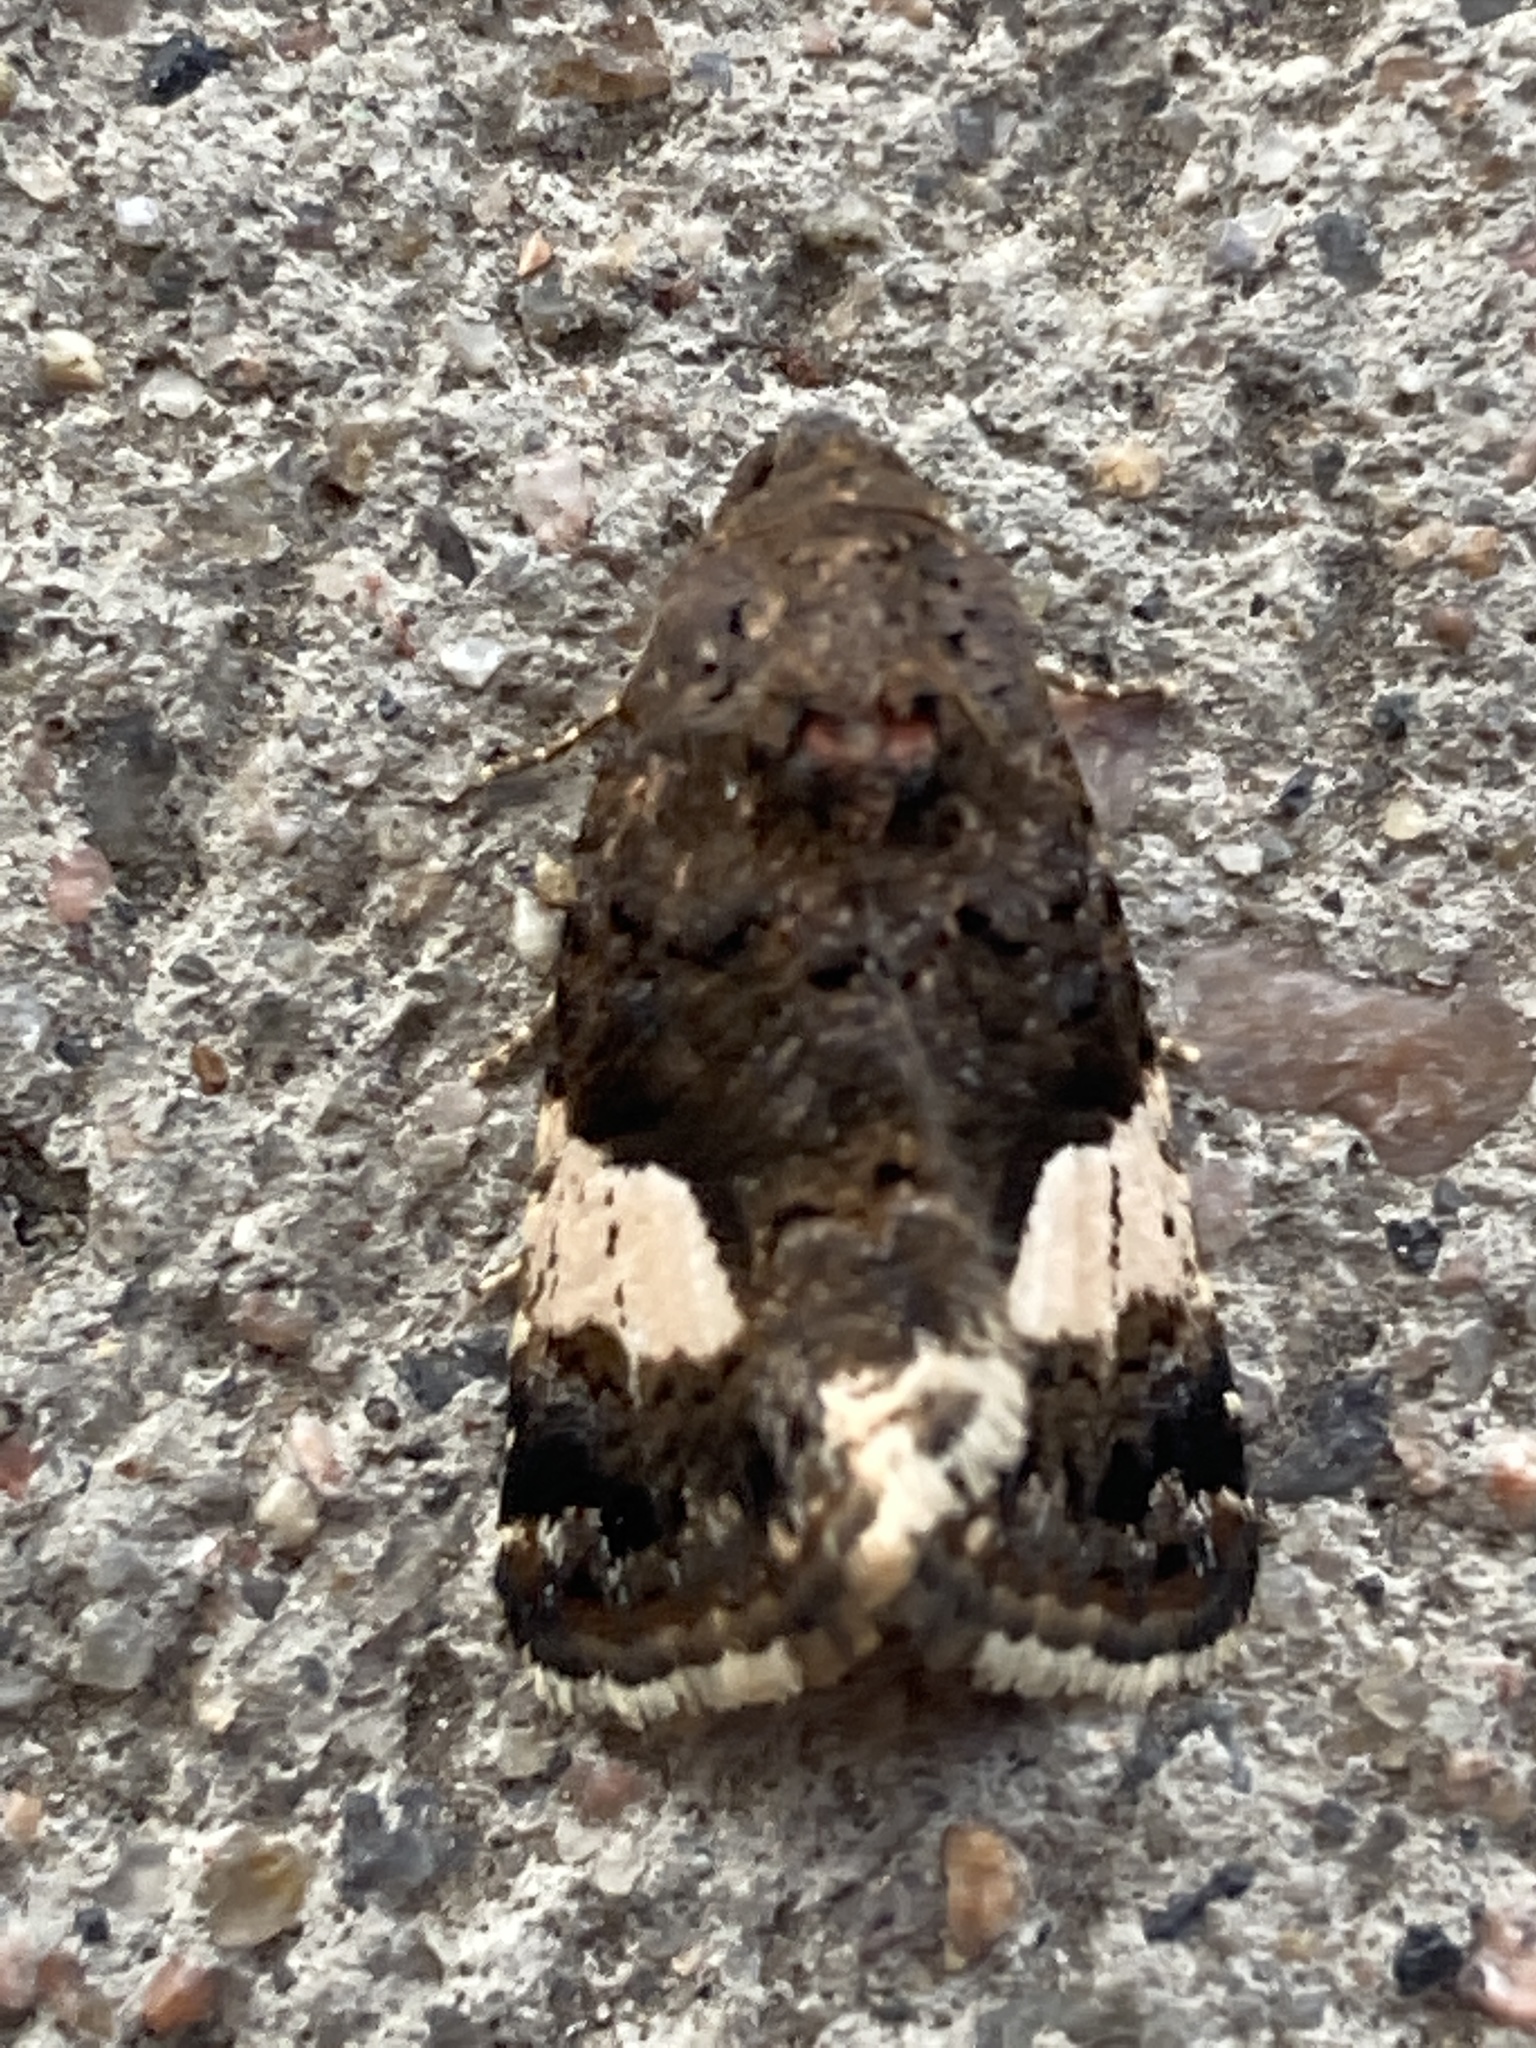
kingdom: Animalia
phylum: Arthropoda
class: Insecta
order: Lepidoptera
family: Erebidae
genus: Tyta
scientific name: Tyta luctuosa
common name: Four-spotted
